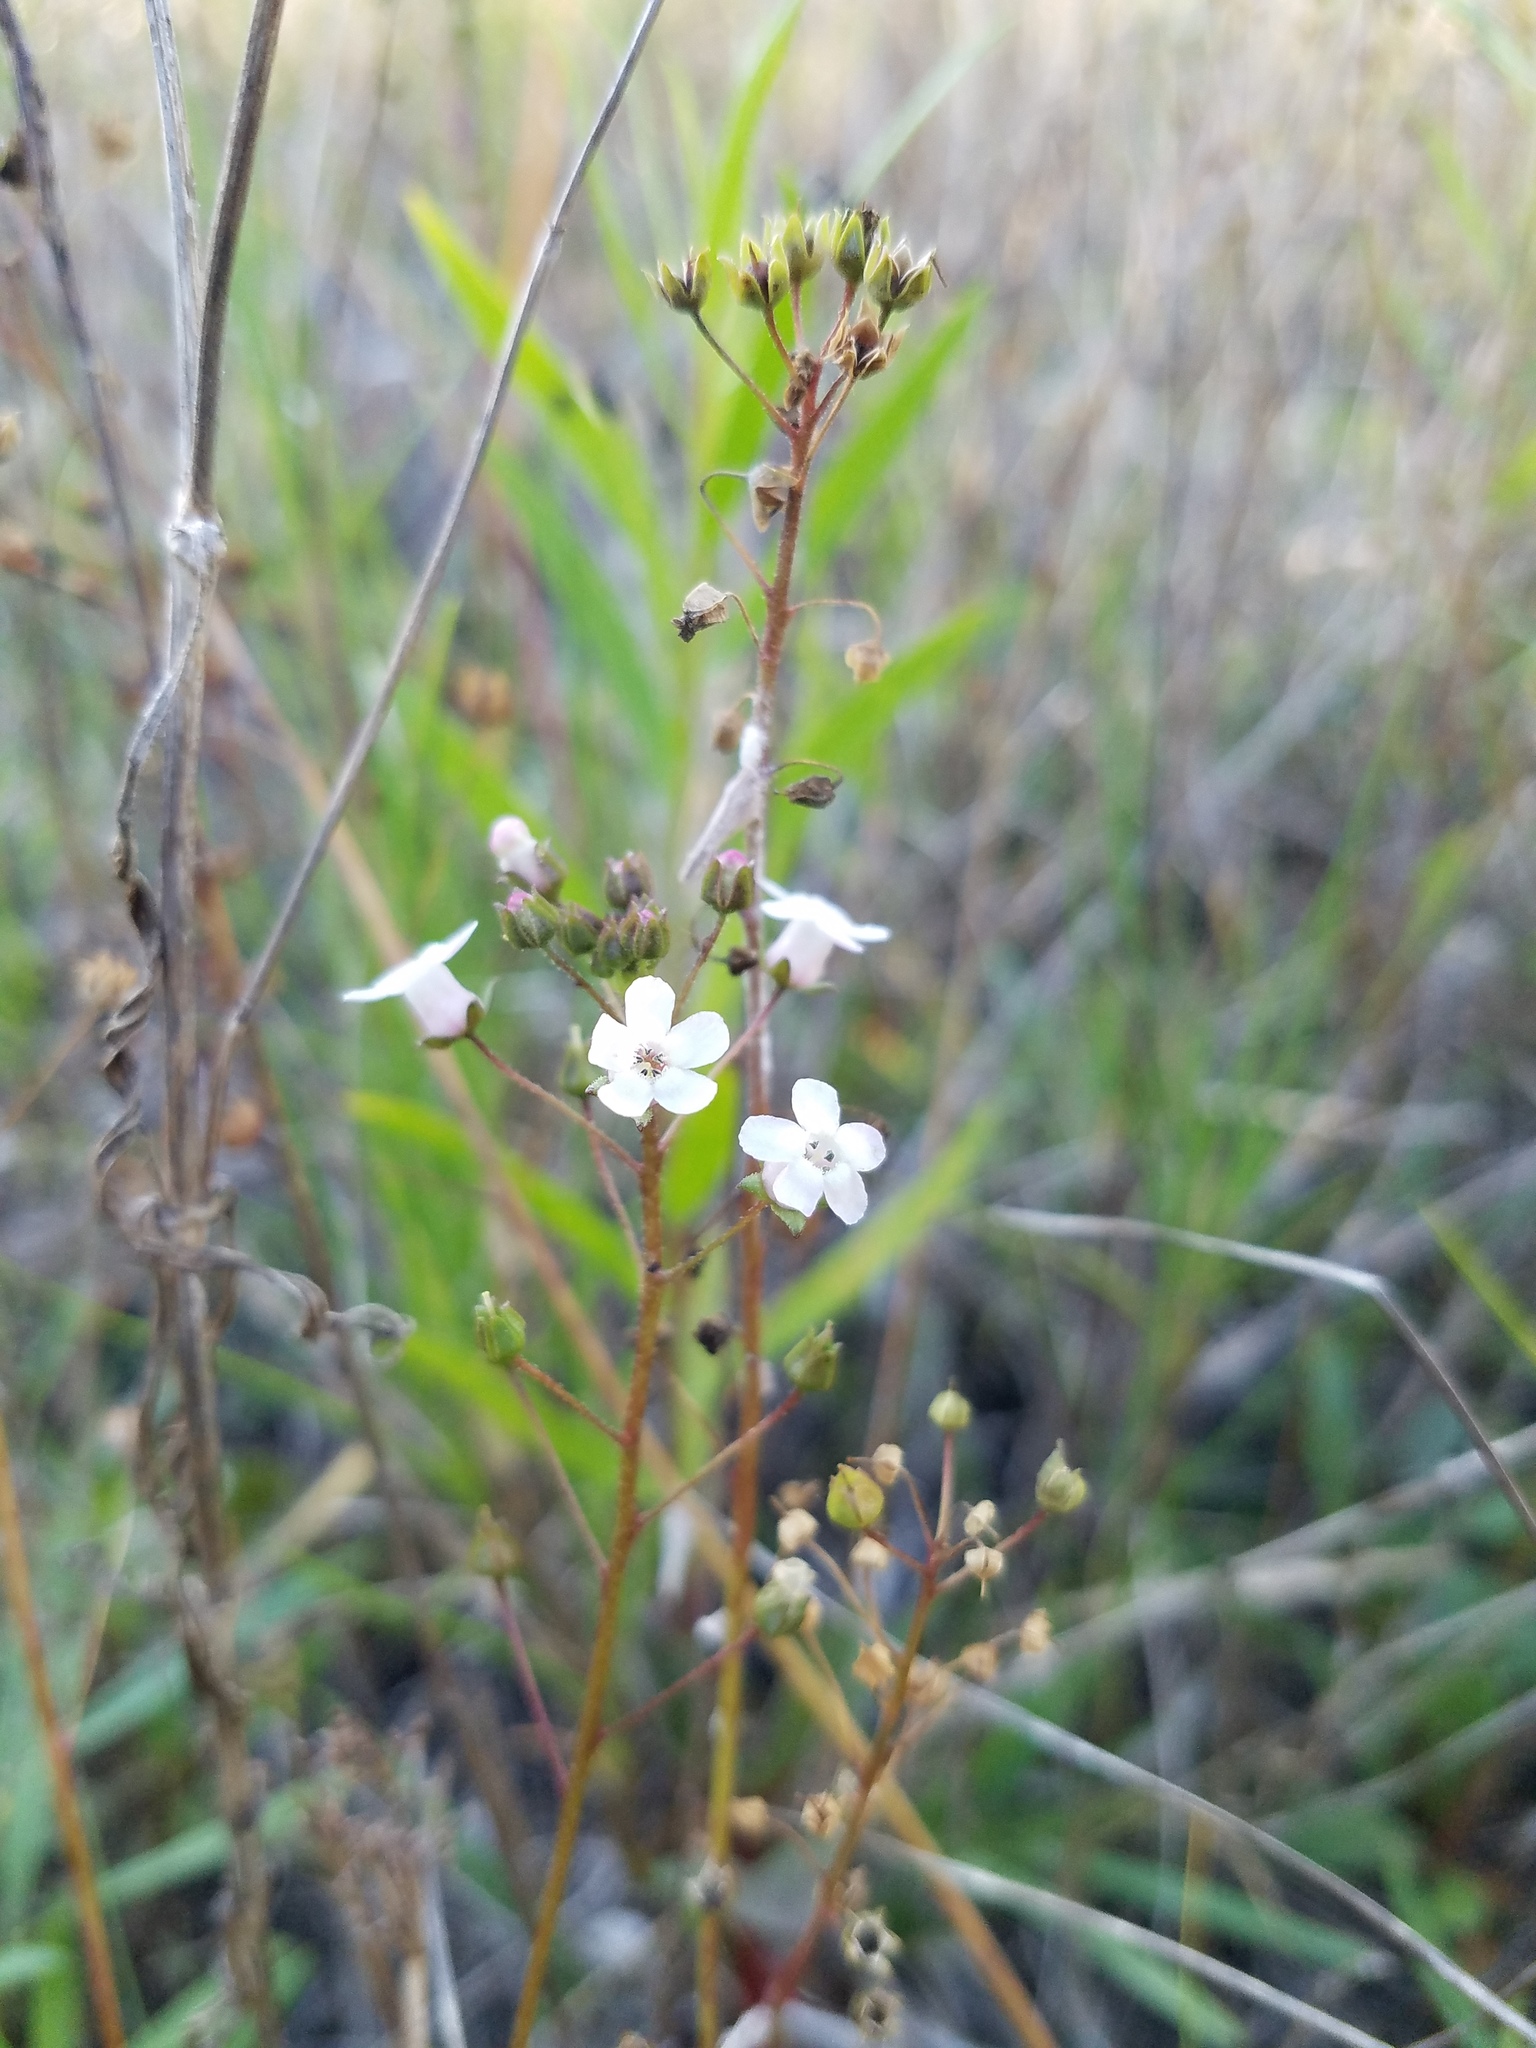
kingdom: Plantae
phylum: Tracheophyta
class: Magnoliopsida
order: Ericales
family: Primulaceae
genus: Samolus
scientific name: Samolus ebracteatus
